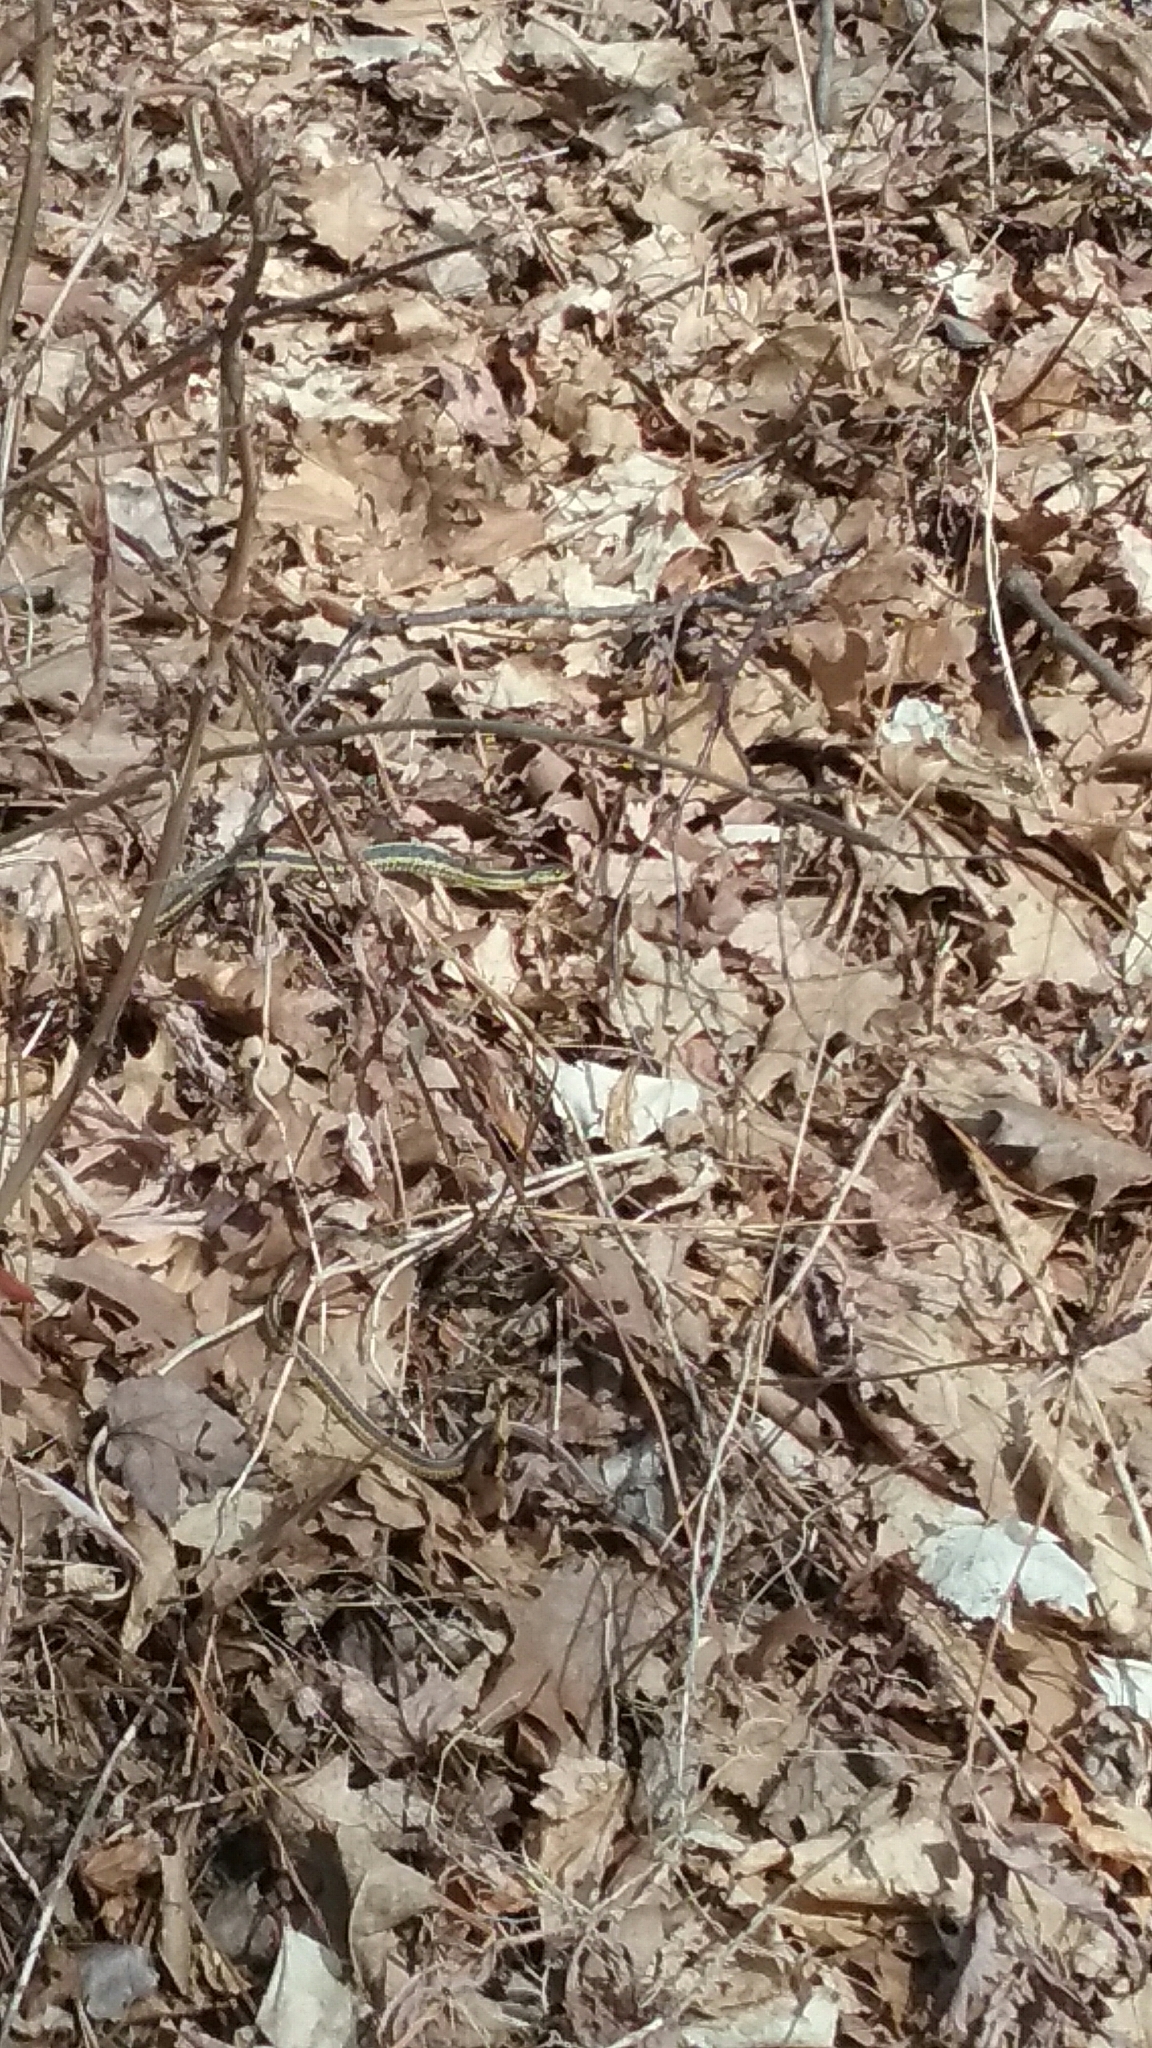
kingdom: Animalia
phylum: Chordata
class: Squamata
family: Colubridae
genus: Thamnophis
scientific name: Thamnophis sirtalis
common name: Common garter snake
